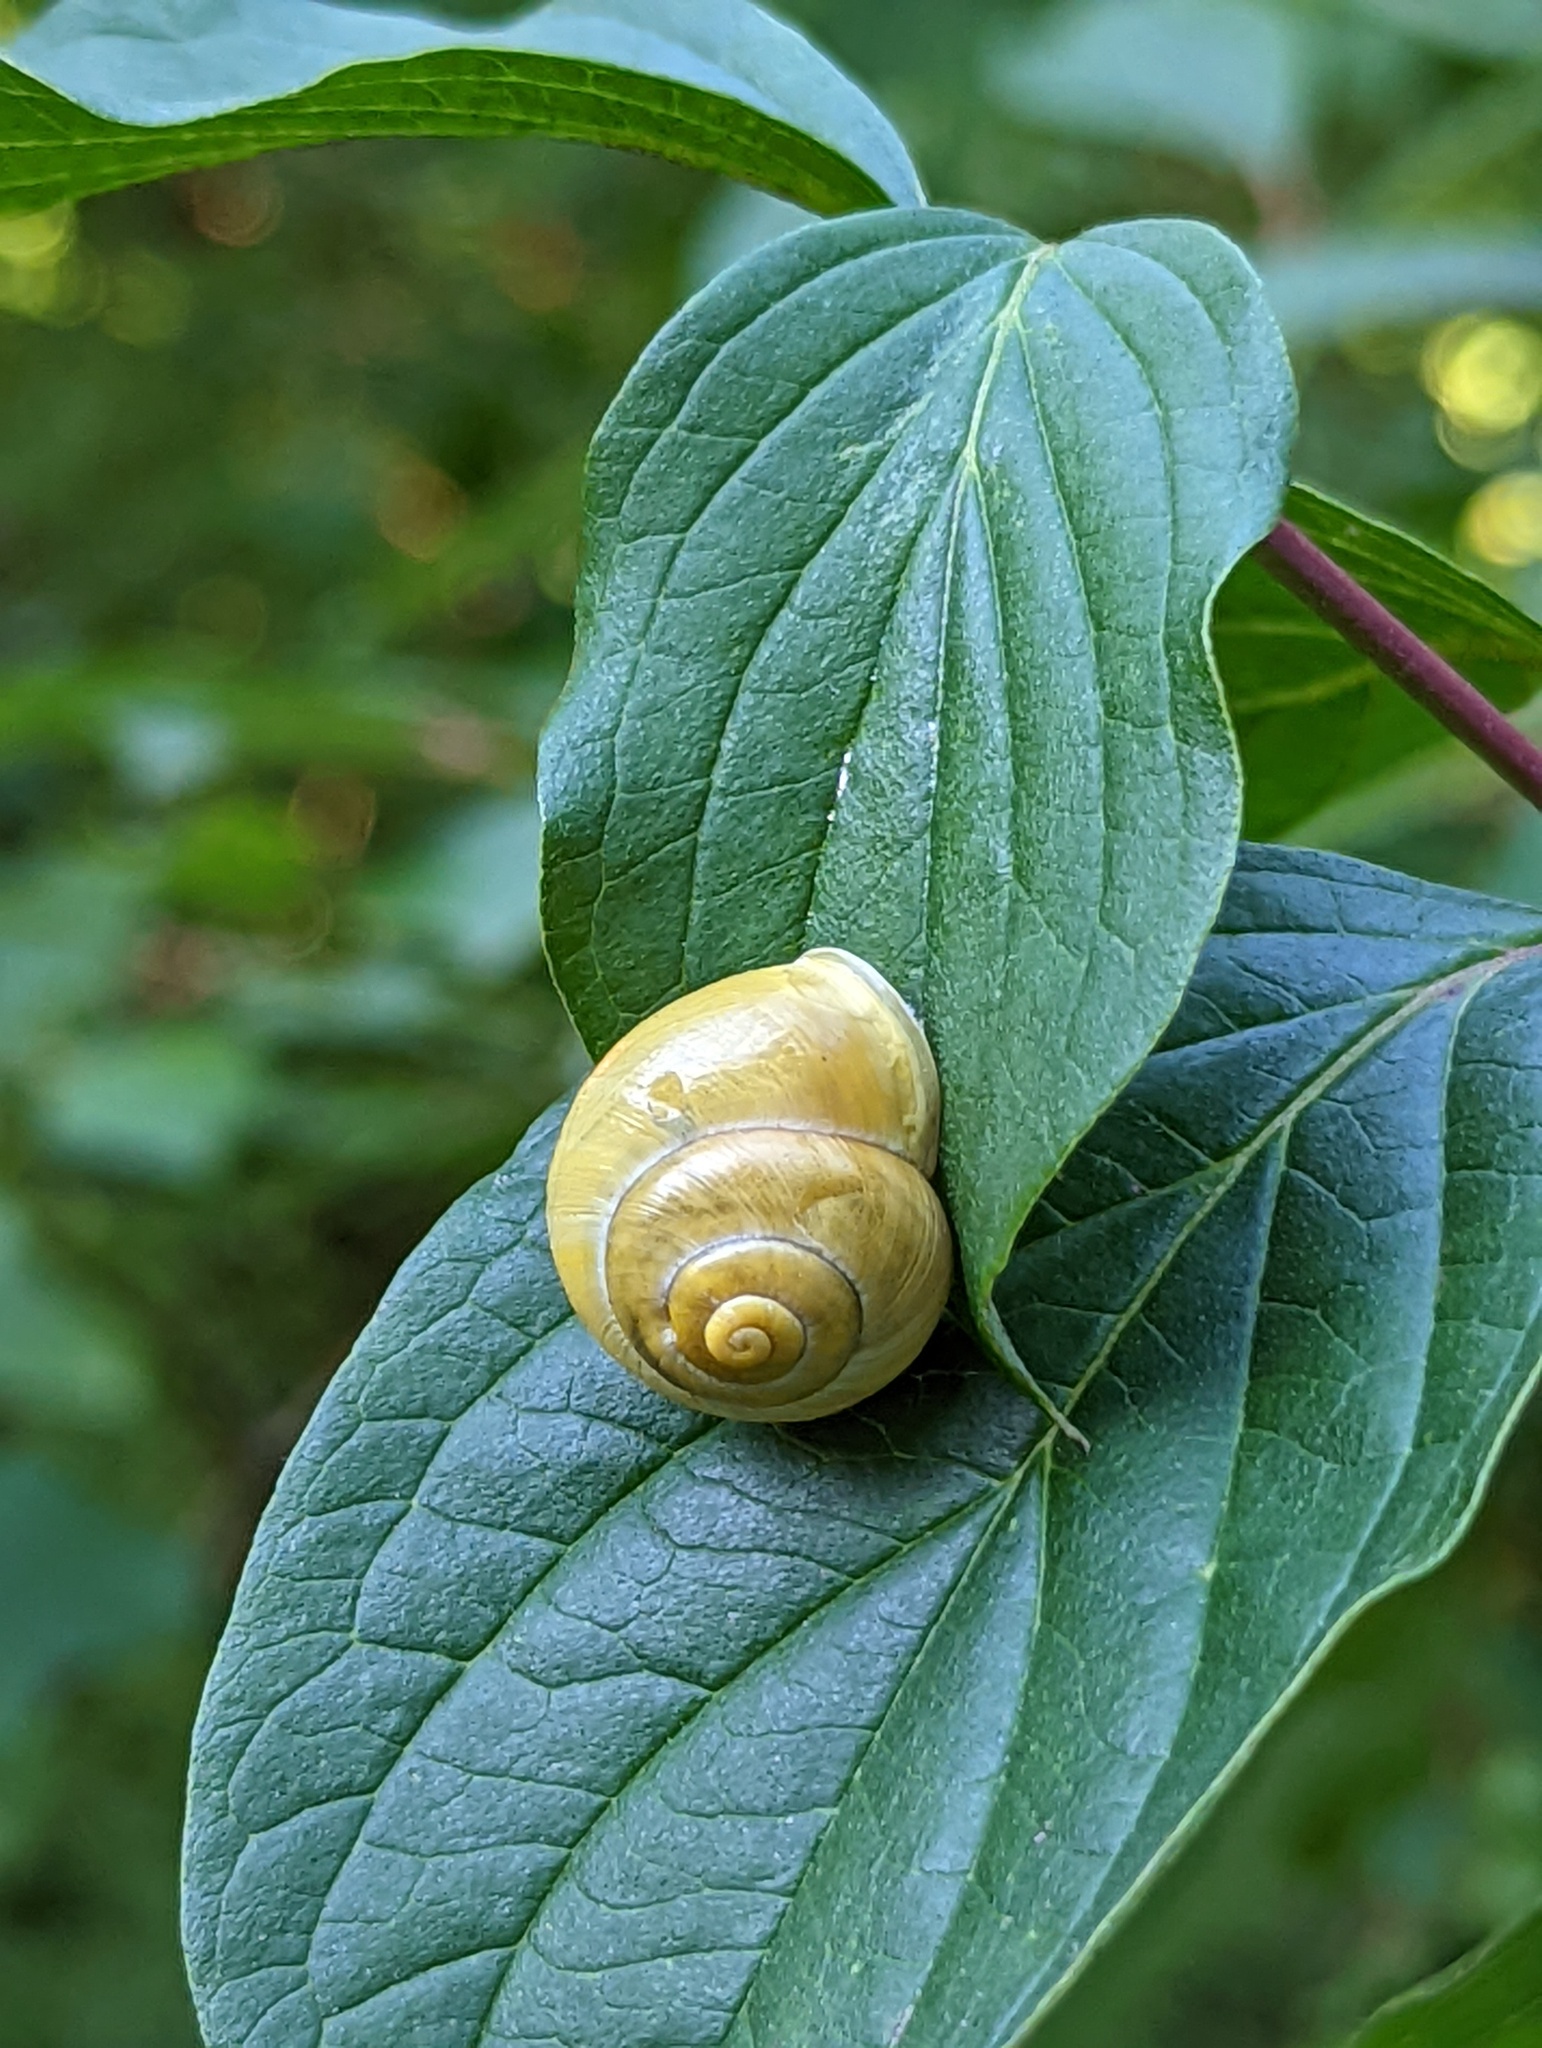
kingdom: Animalia
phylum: Mollusca
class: Gastropoda
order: Stylommatophora
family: Helicidae
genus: Cepaea
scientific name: Cepaea hortensis
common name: White-lip gardensnail
